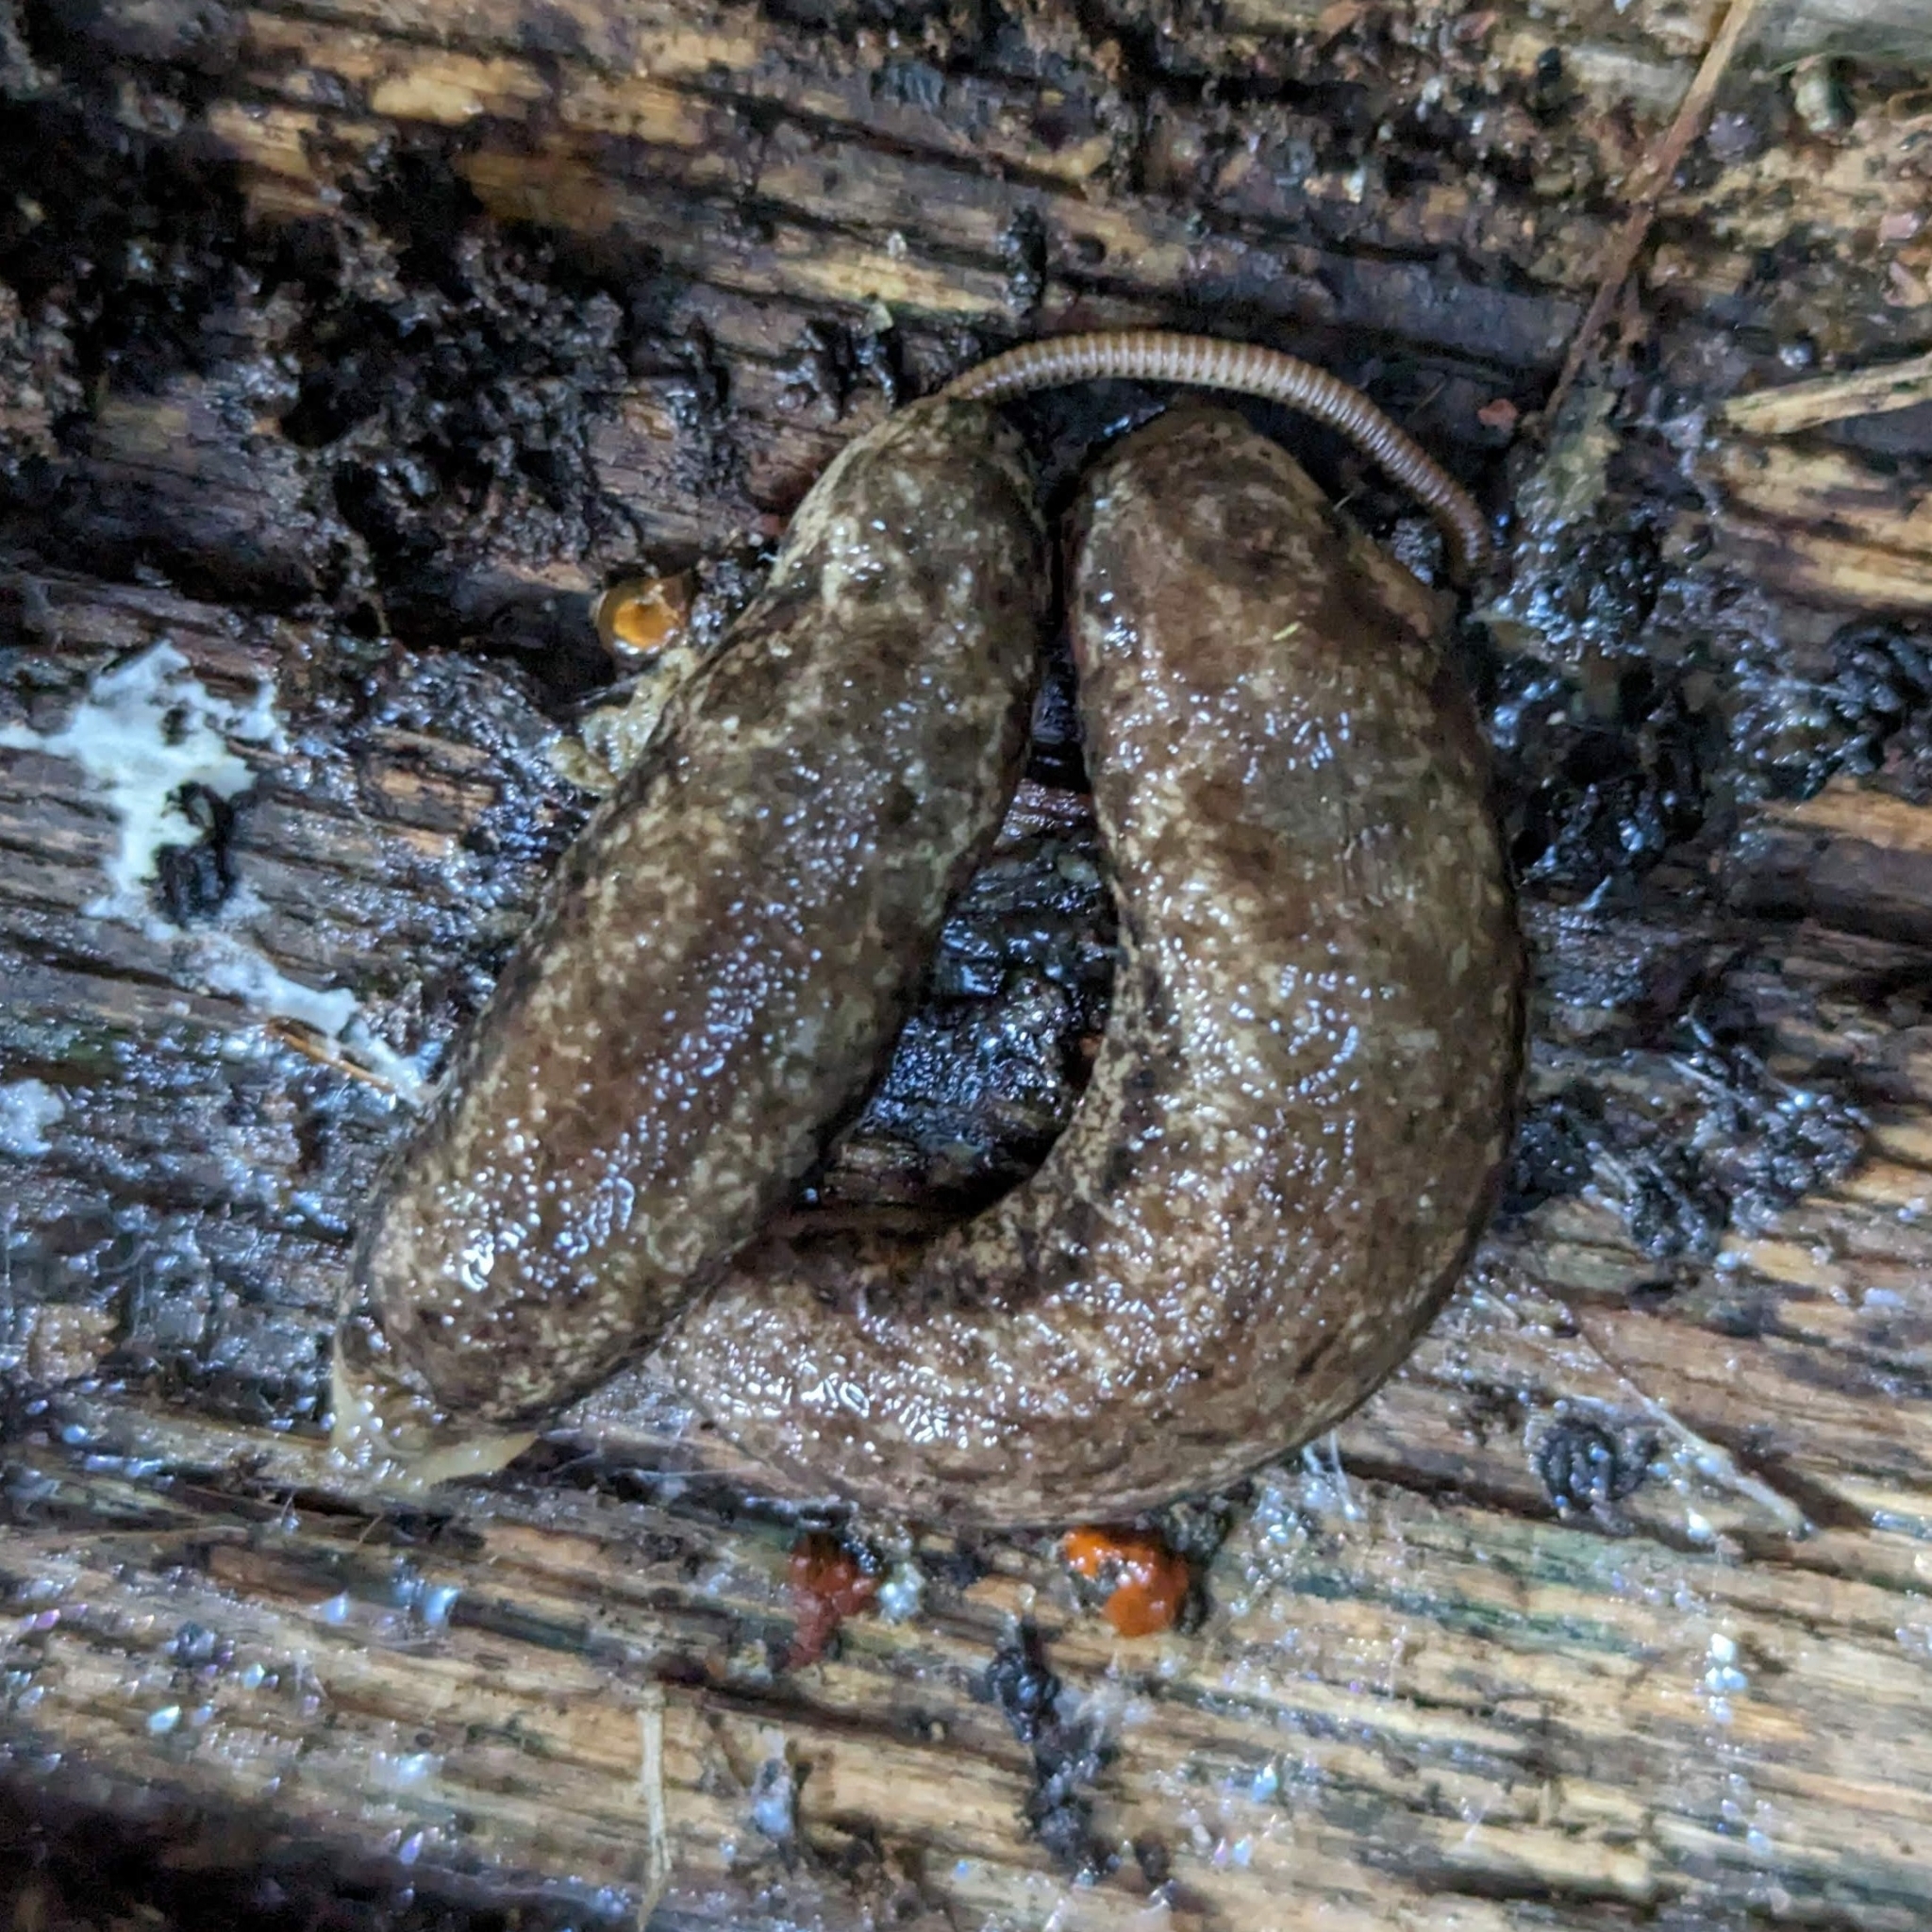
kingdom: Animalia
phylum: Mollusca
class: Gastropoda
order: Stylommatophora
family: Philomycidae
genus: Philomycus
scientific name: Philomycus togatus
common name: Toga mantleslug
